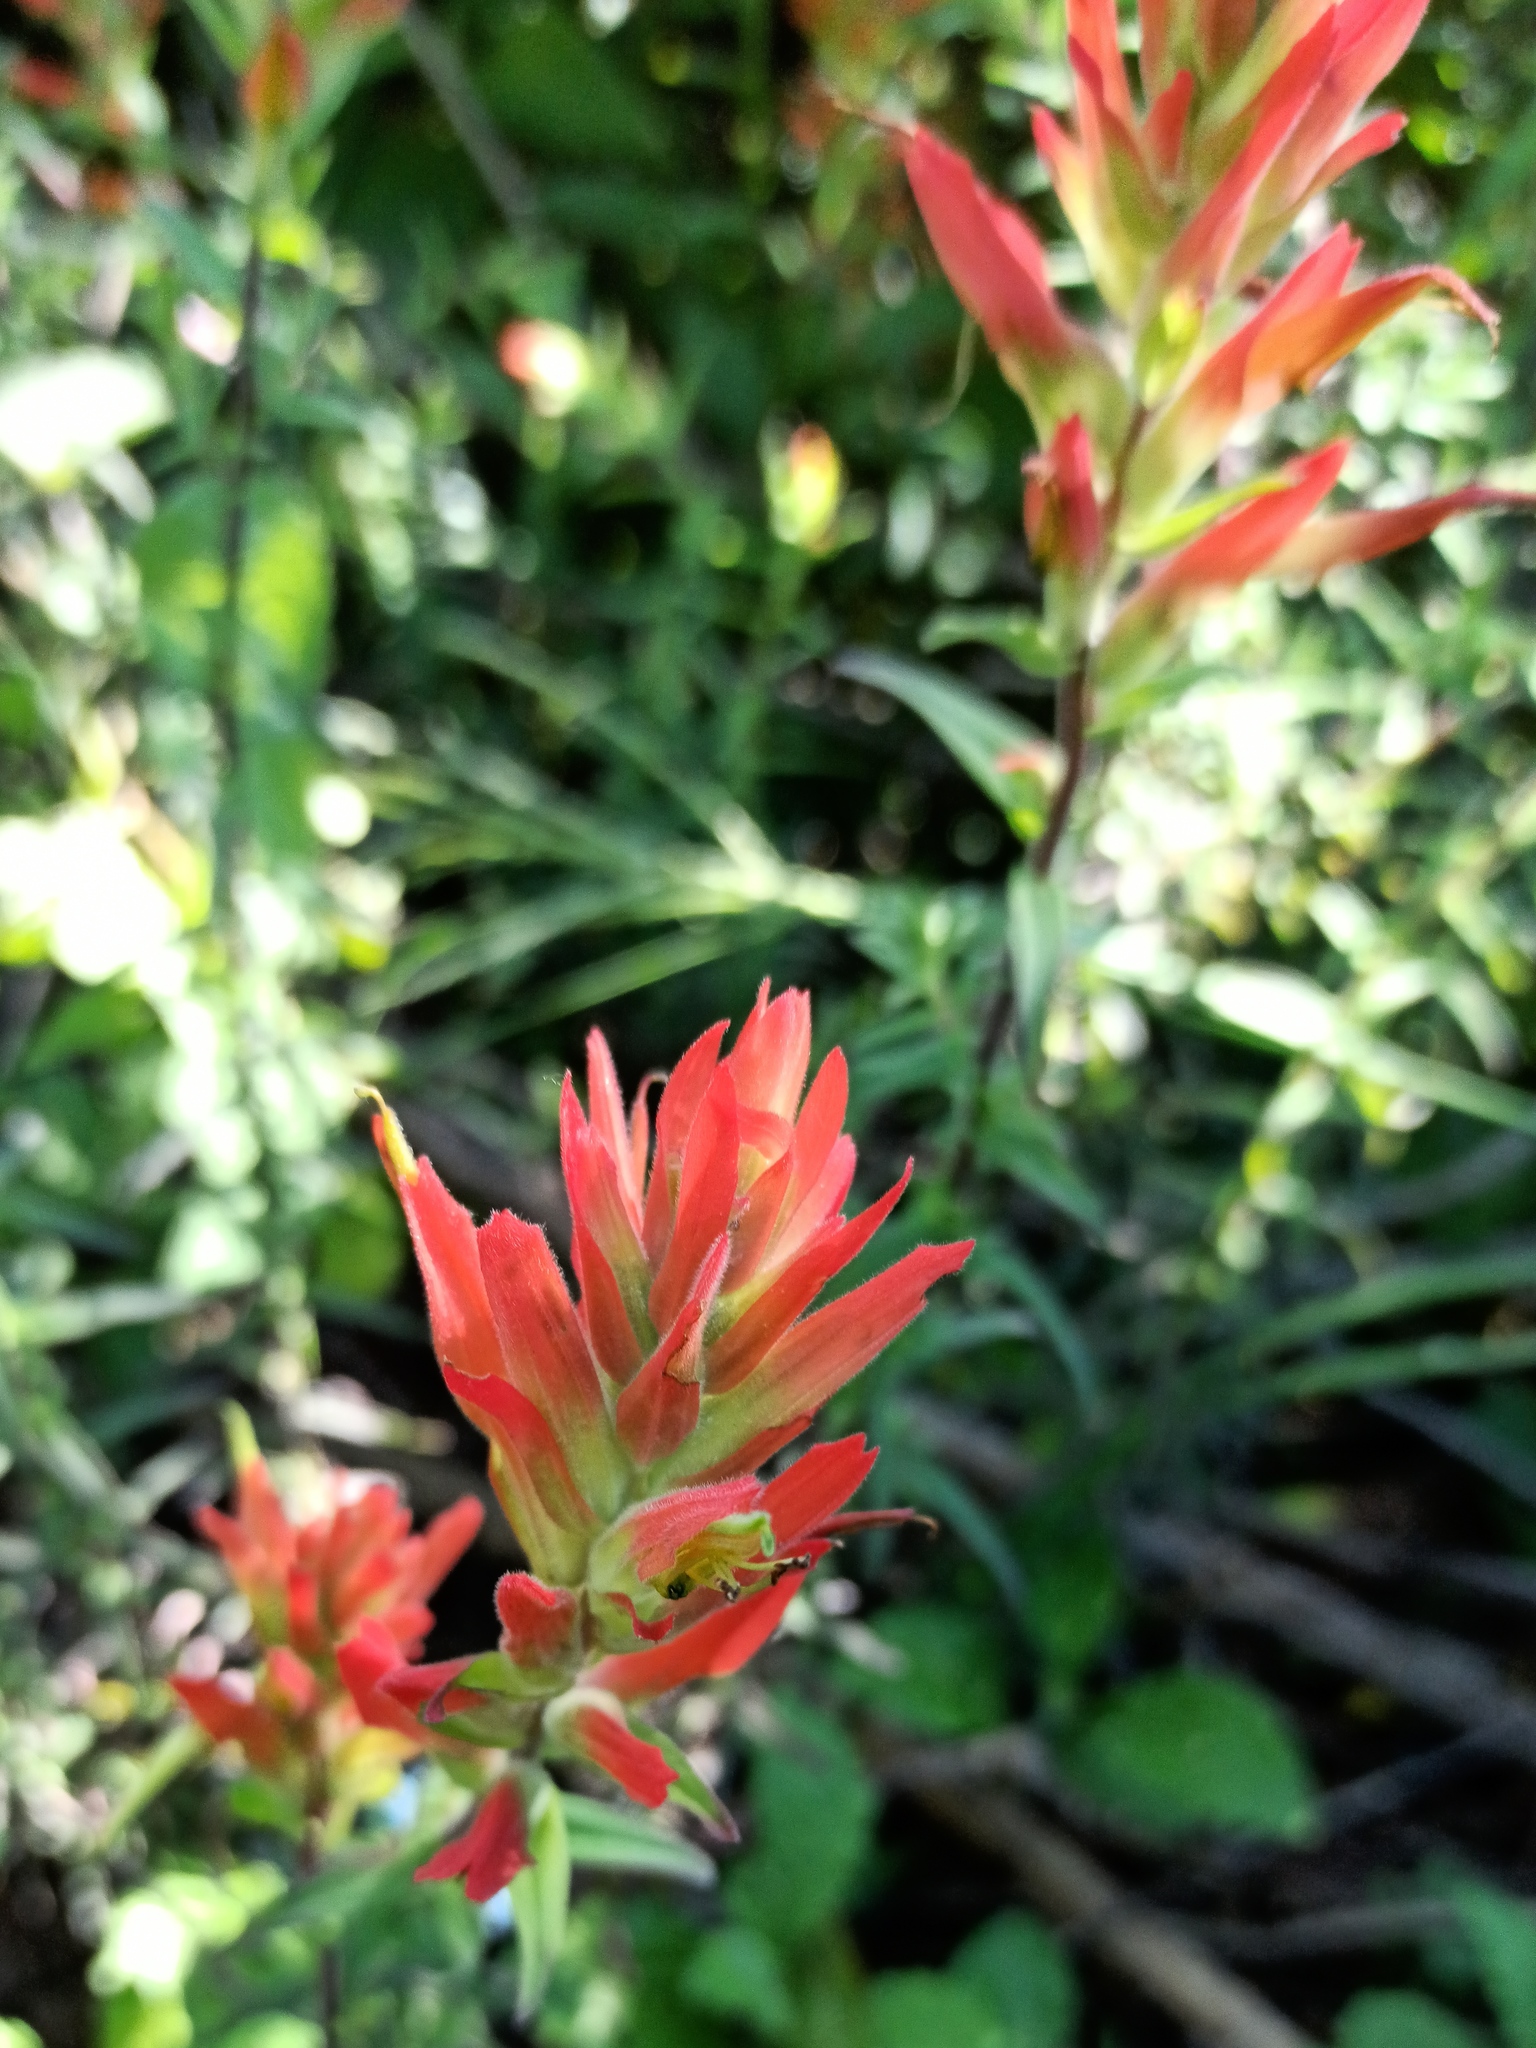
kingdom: Plantae
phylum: Tracheophyta
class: Magnoliopsida
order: Lamiales
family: Orobanchaceae
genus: Castilleja
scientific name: Castilleja tenuiflora
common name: Santa catalina indian paintbrush
